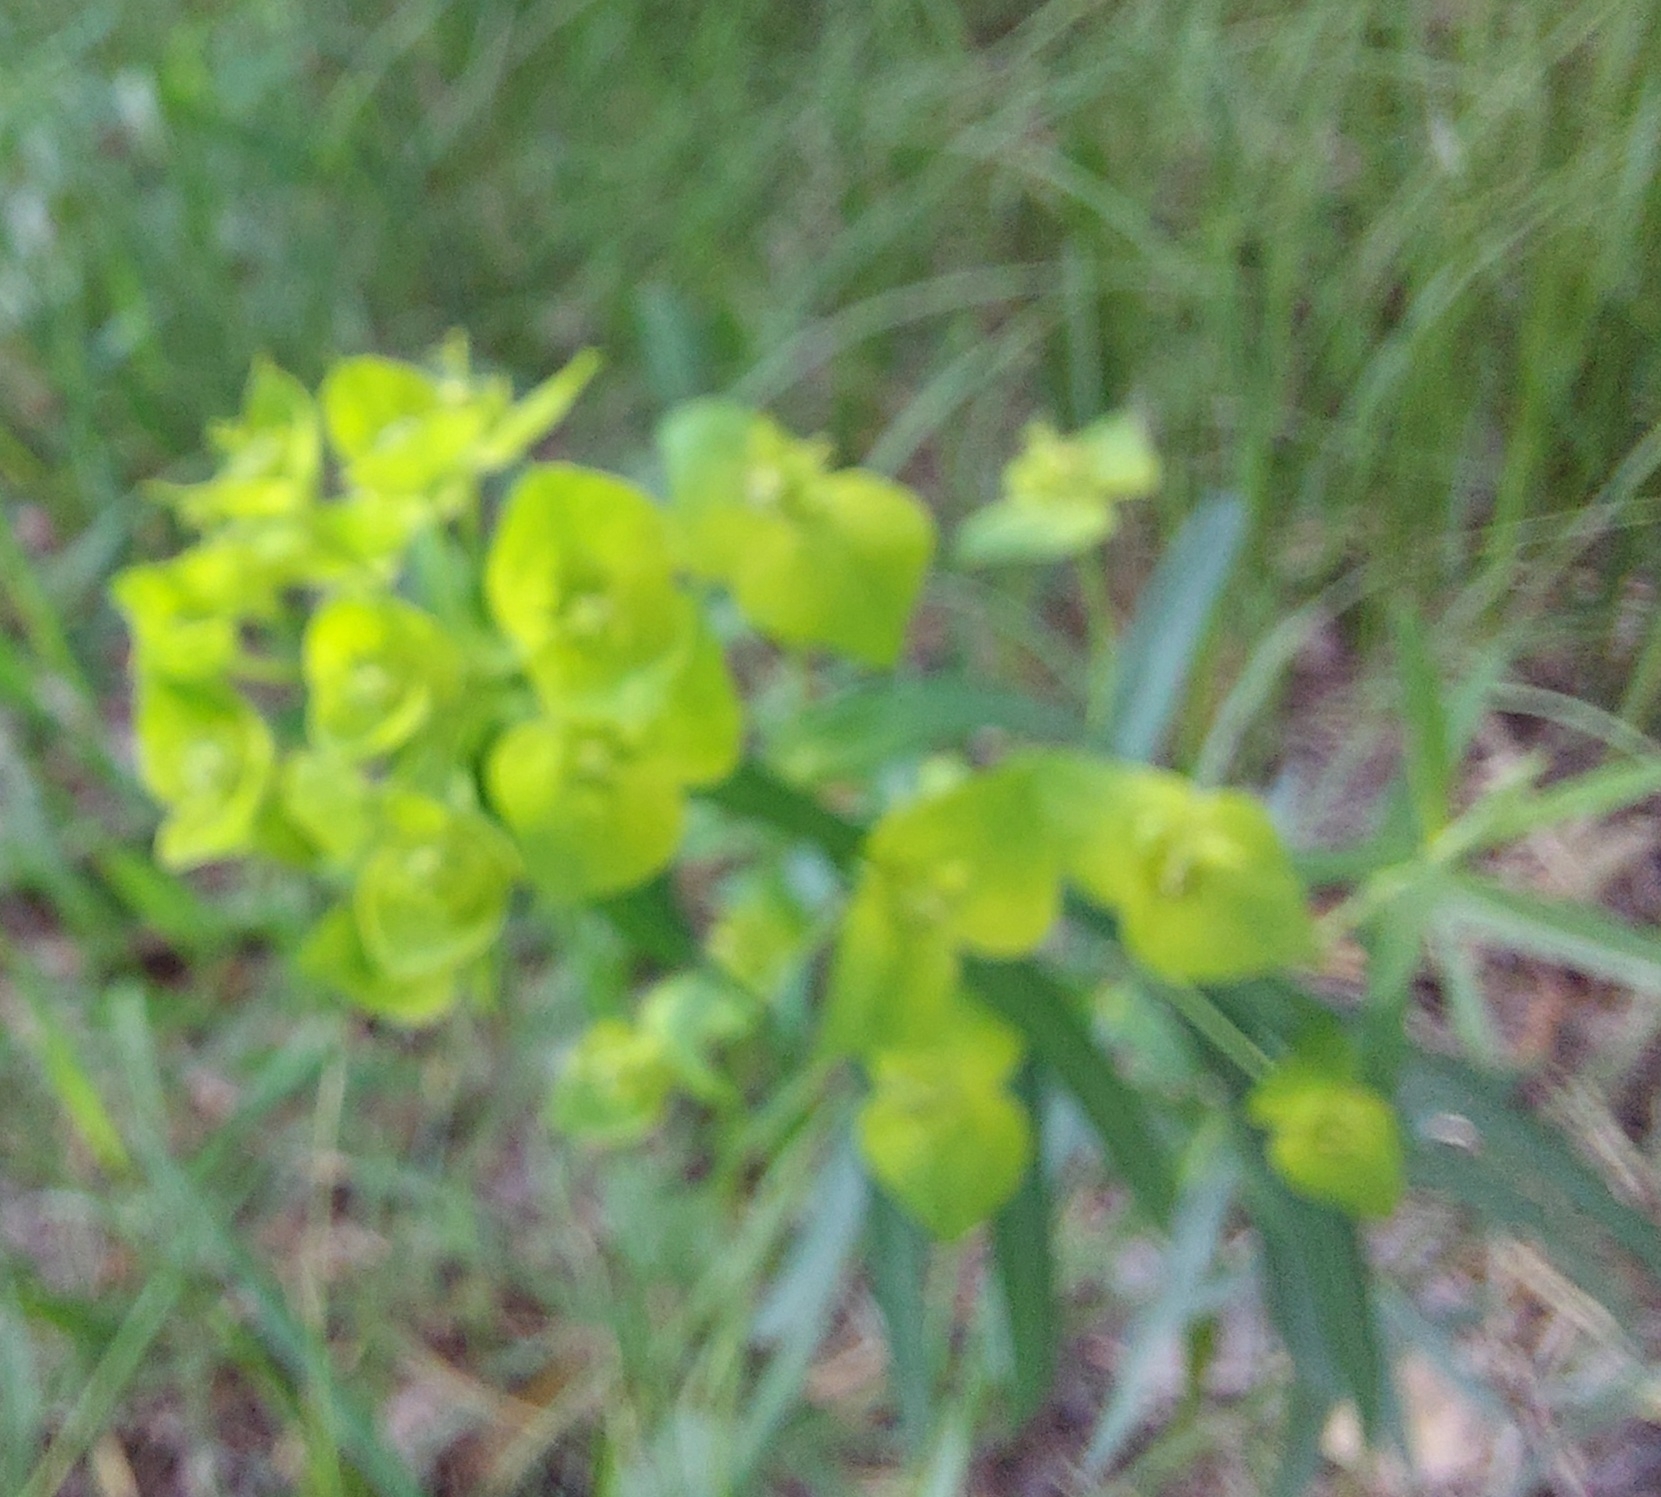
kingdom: Plantae
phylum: Tracheophyta
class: Magnoliopsida
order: Malpighiales
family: Euphorbiaceae
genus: Euphorbia
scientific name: Euphorbia virgata
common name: Leafy spurge
